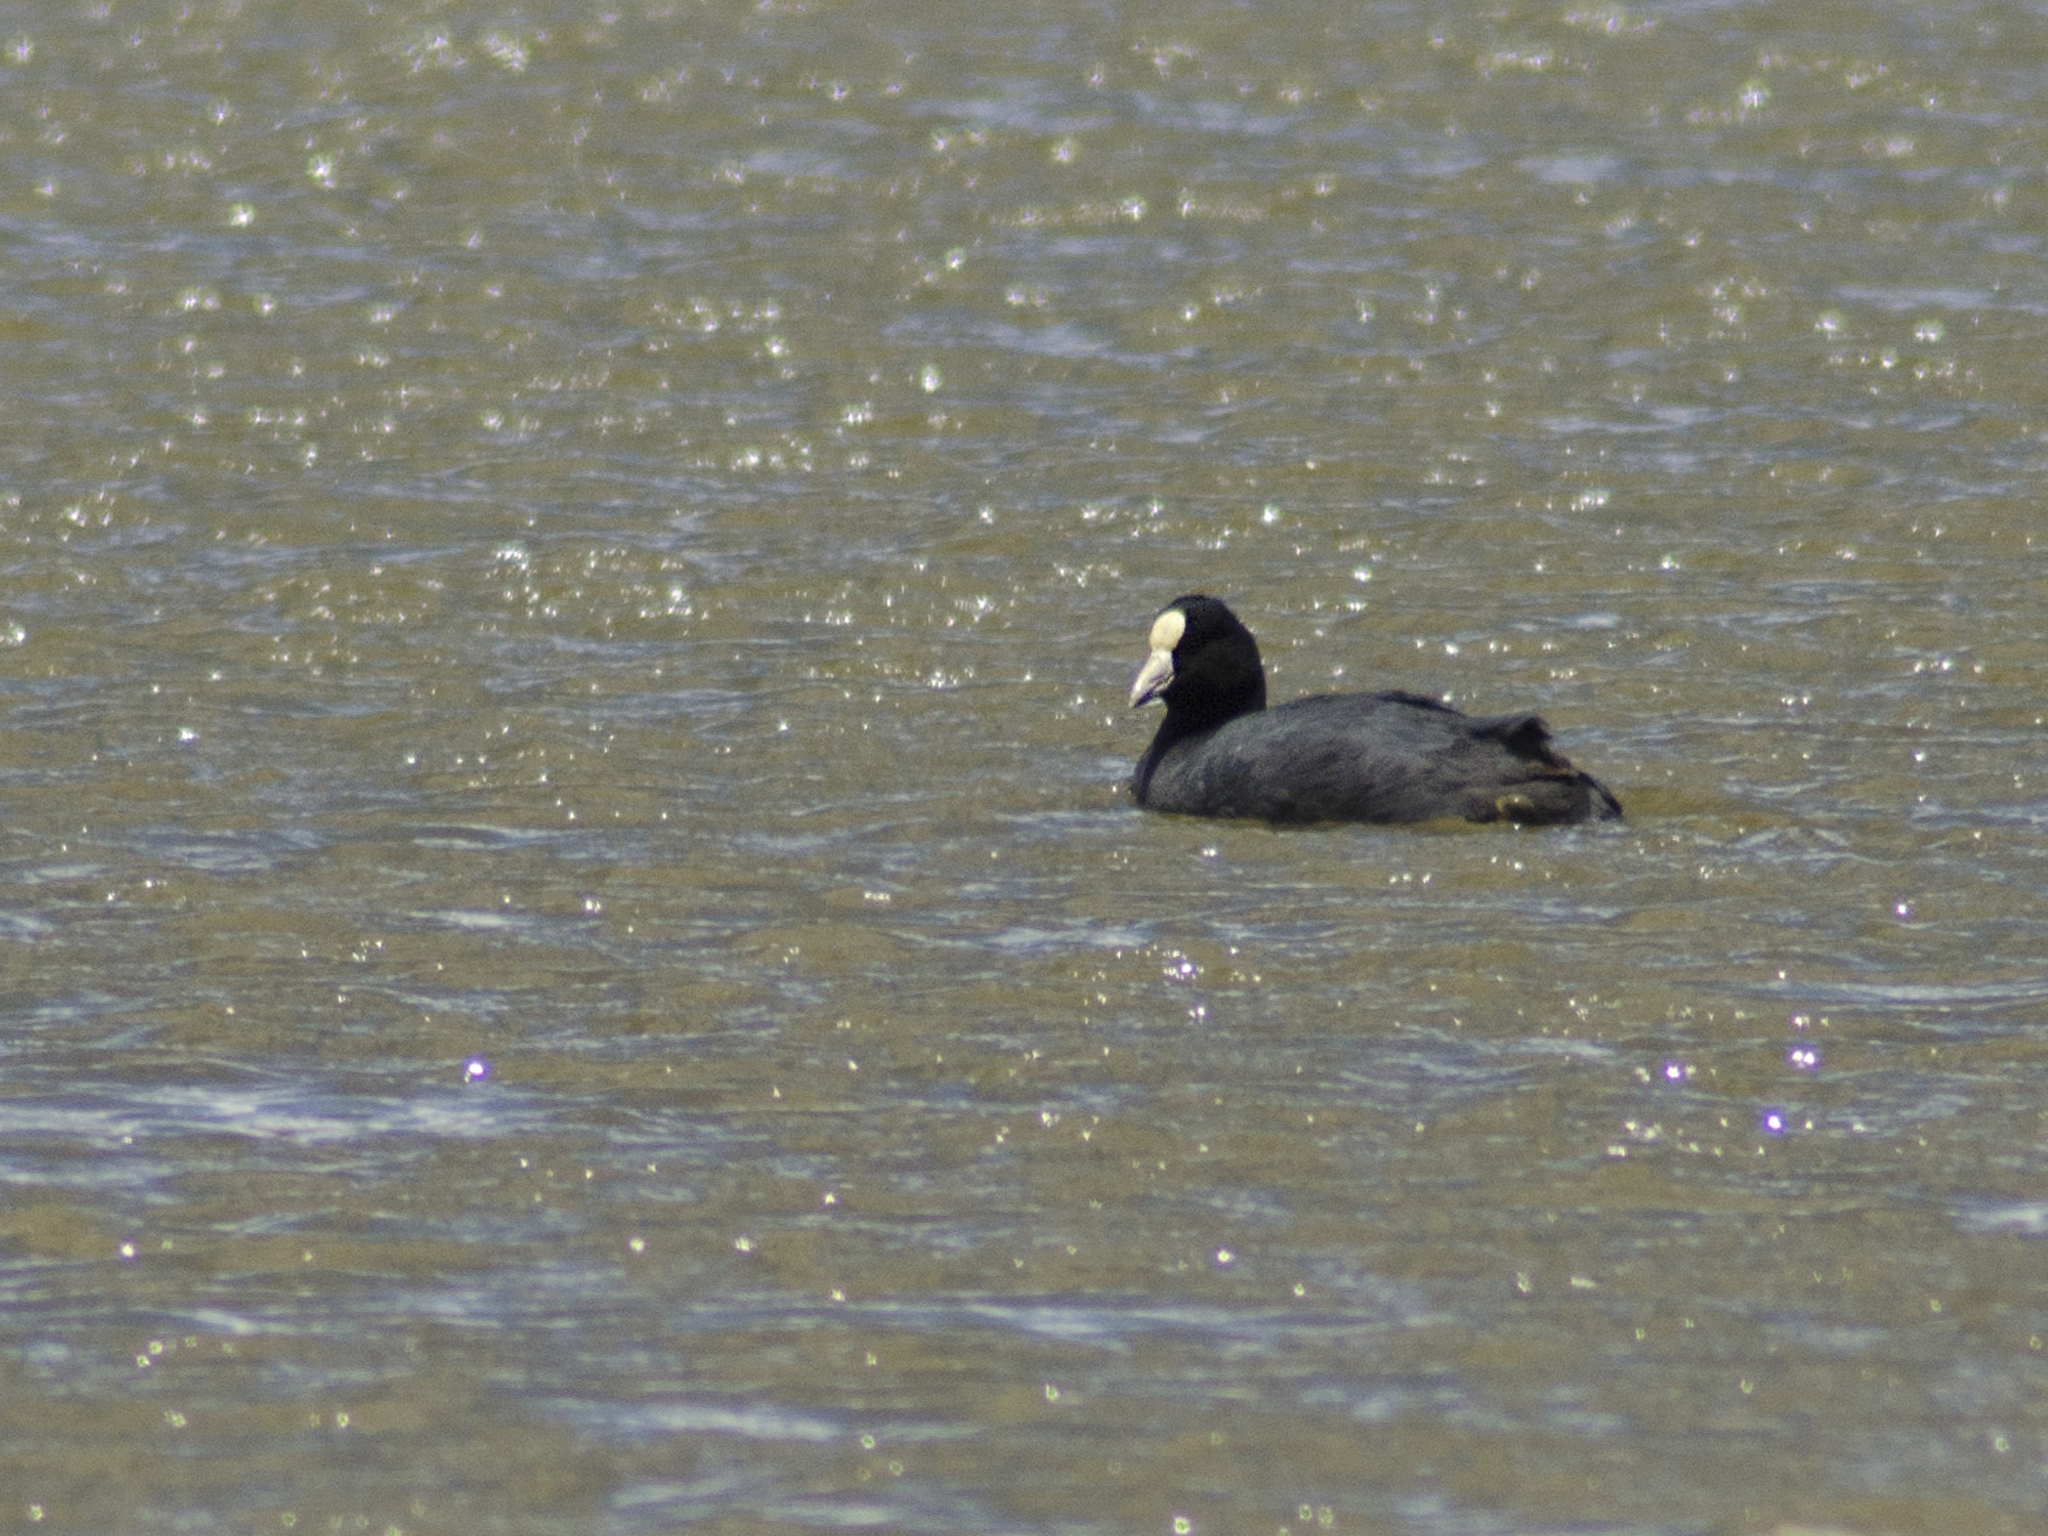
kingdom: Animalia
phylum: Chordata
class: Aves
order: Gruiformes
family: Rallidae
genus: Fulica
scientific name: Fulica ardesiaca
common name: Andean coot
